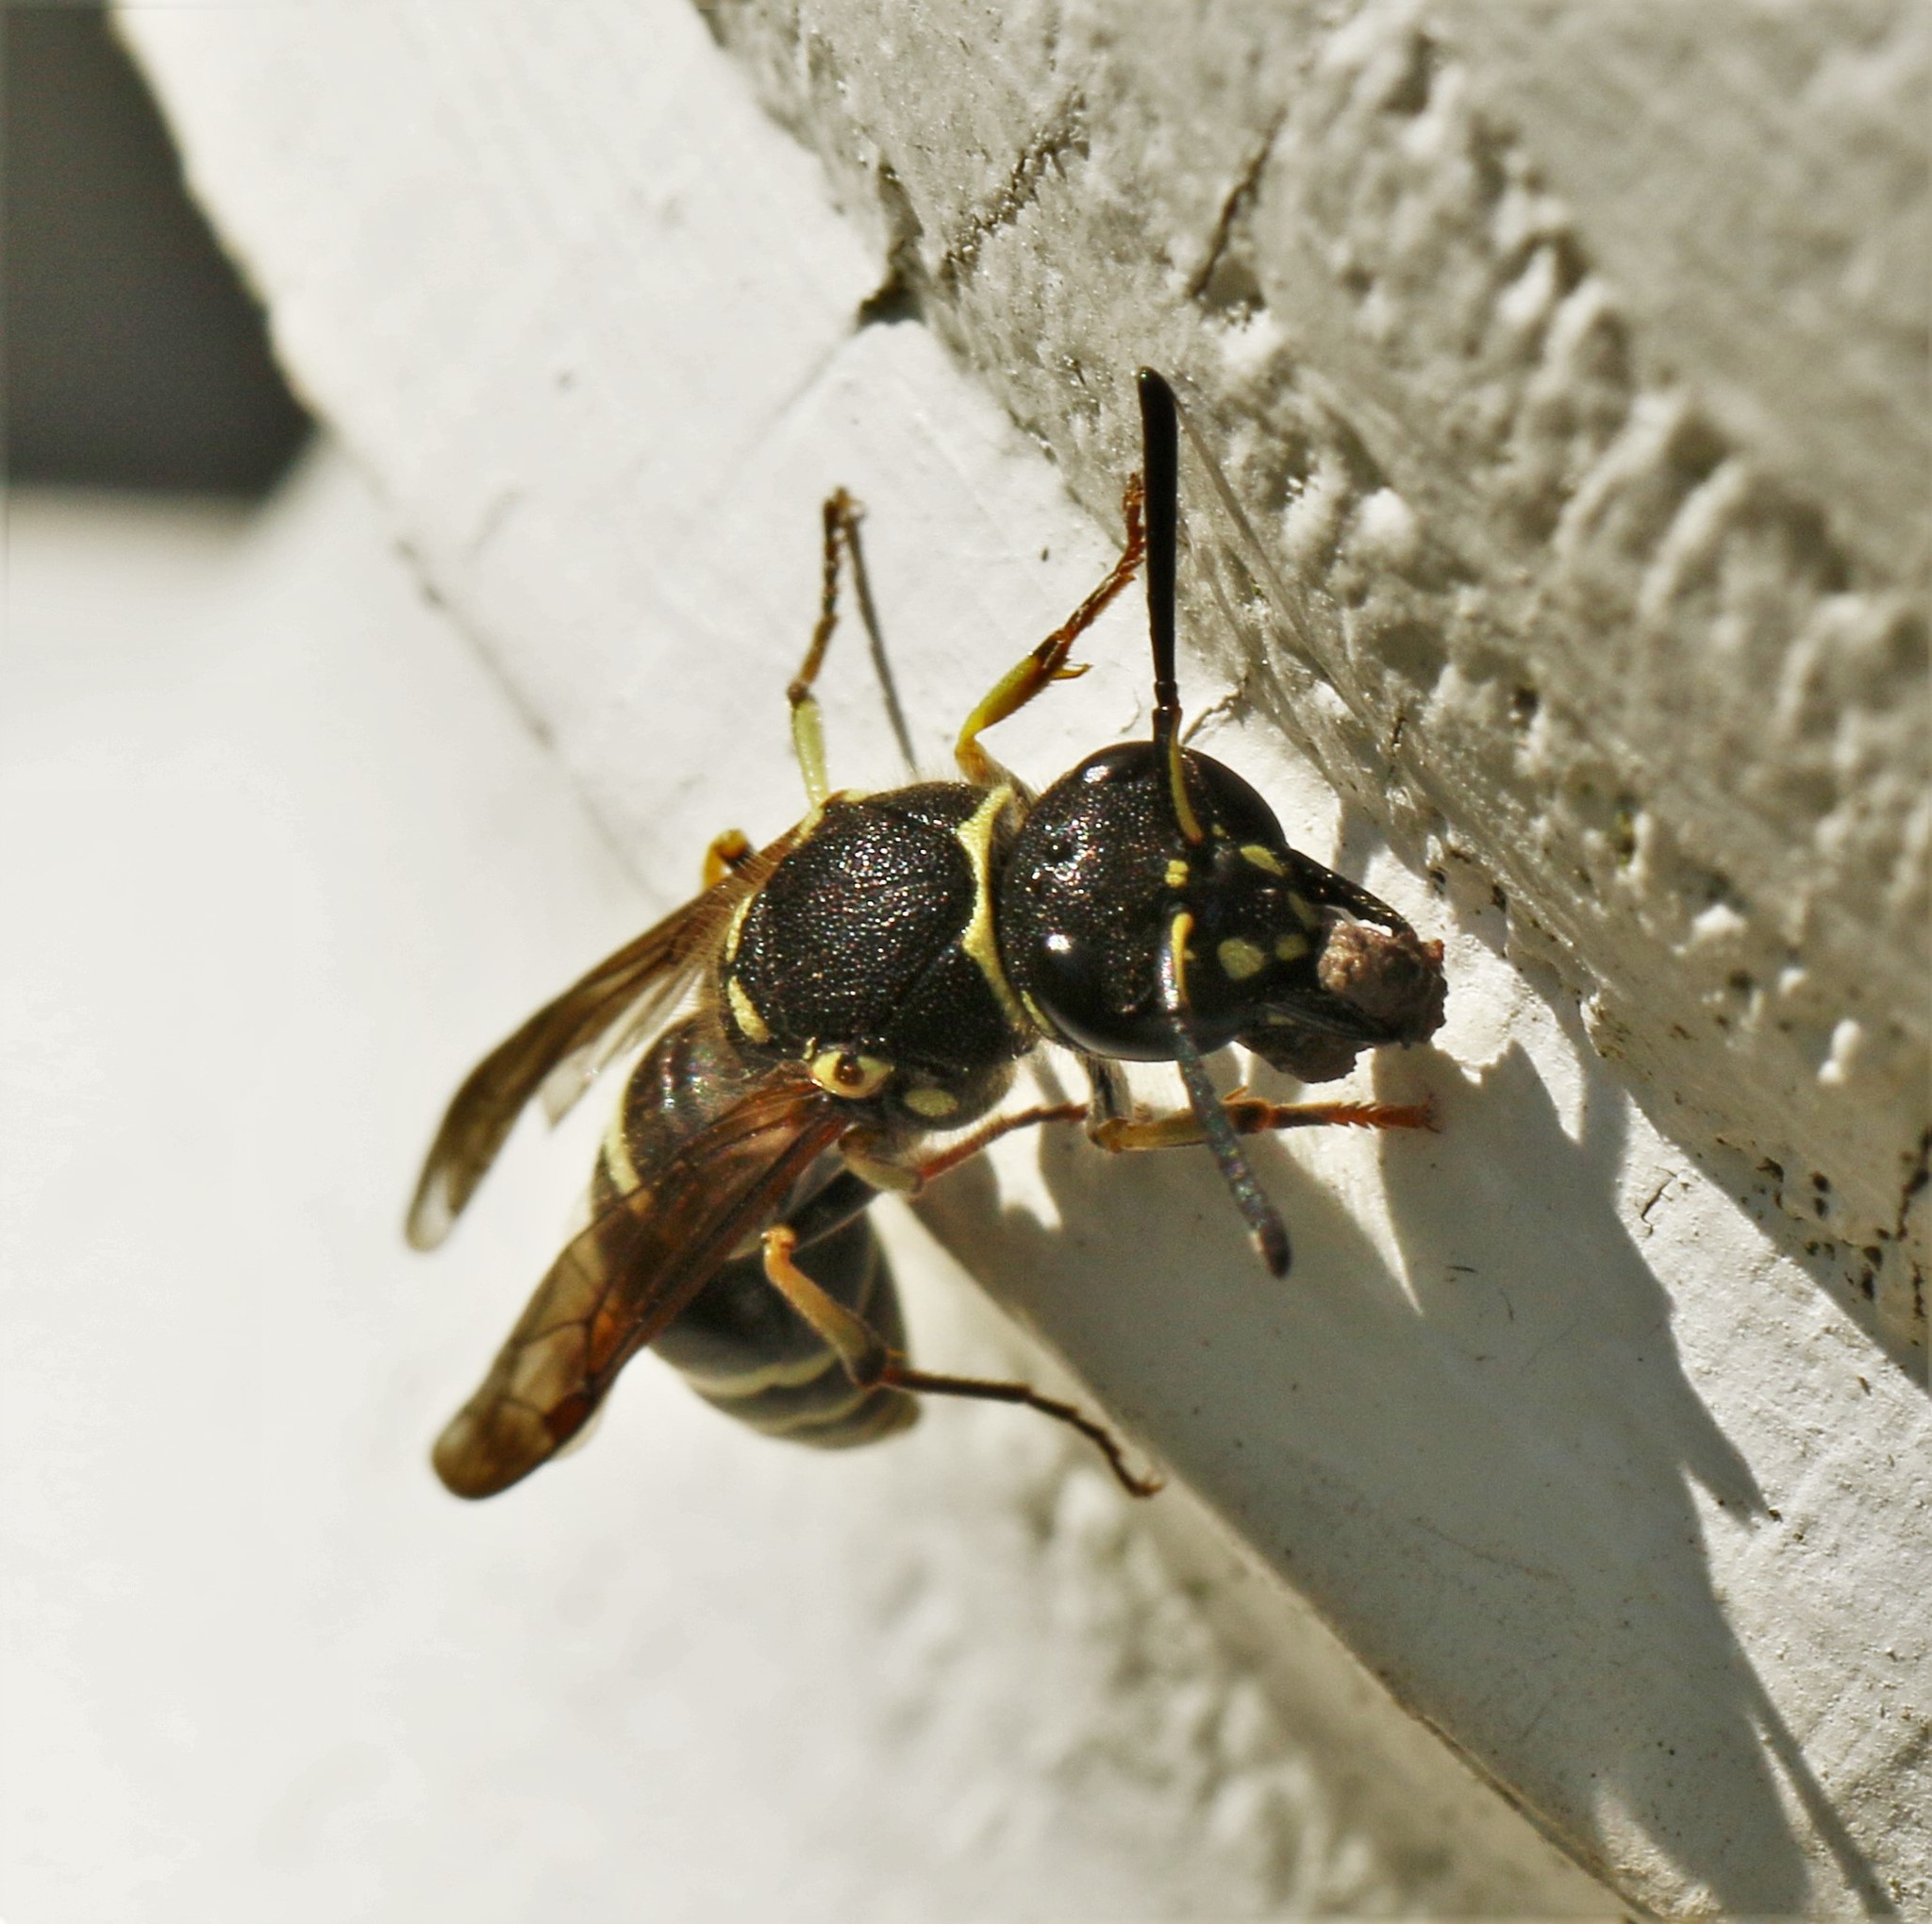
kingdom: Animalia
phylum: Arthropoda
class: Insecta
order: Hymenoptera
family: Vespidae
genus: Ancistrocerus
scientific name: Ancistrocerus
